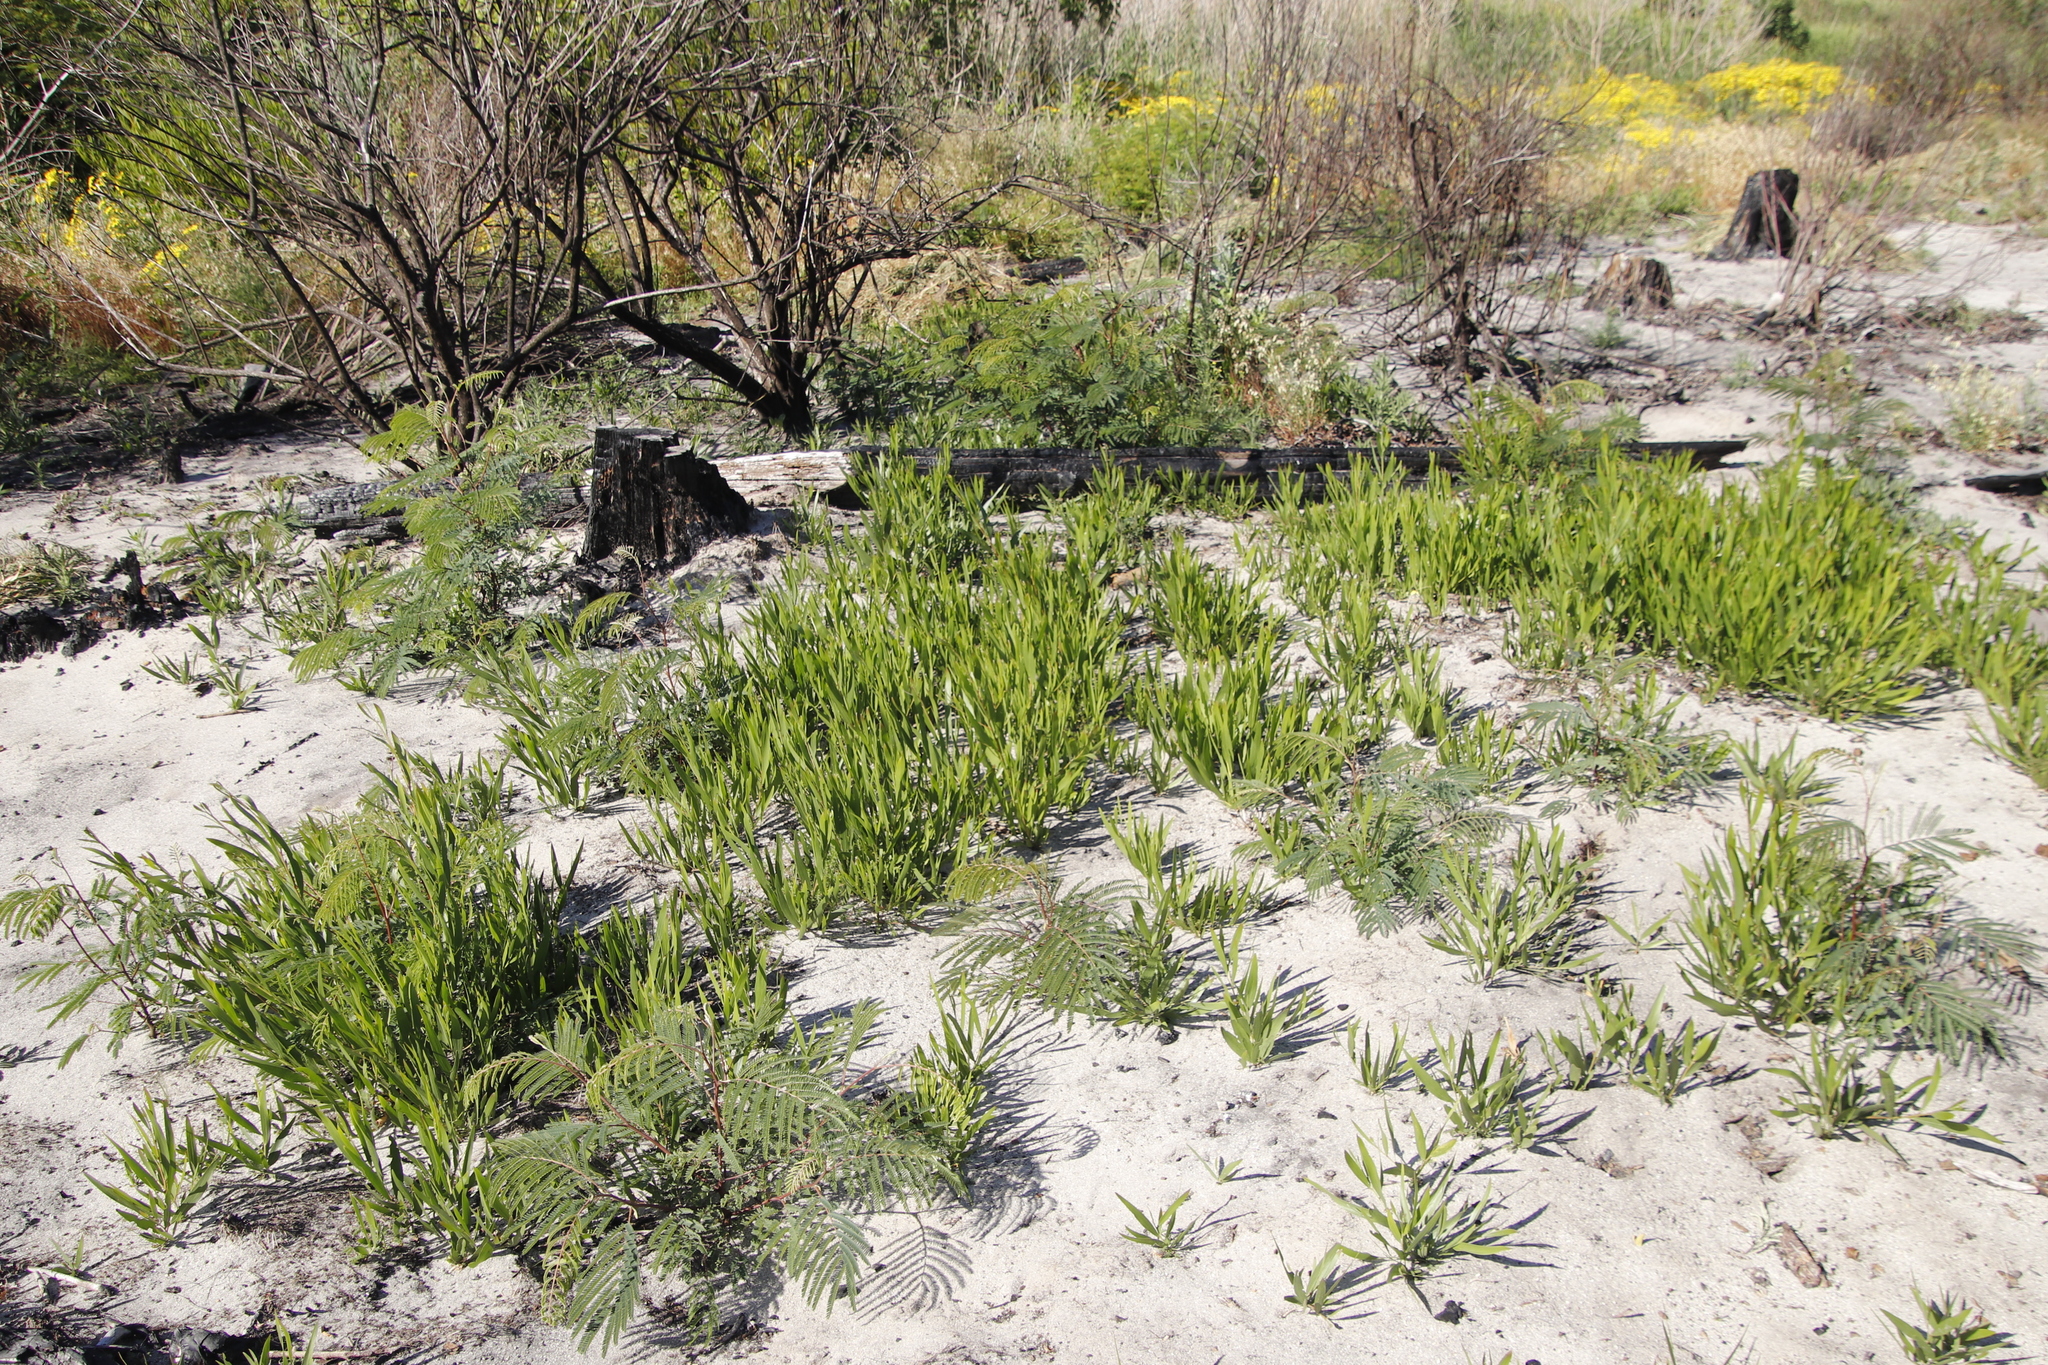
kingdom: Plantae
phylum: Tracheophyta
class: Magnoliopsida
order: Fabales
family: Fabaceae
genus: Acacia
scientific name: Acacia longifolia
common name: Sydney golden wattle
